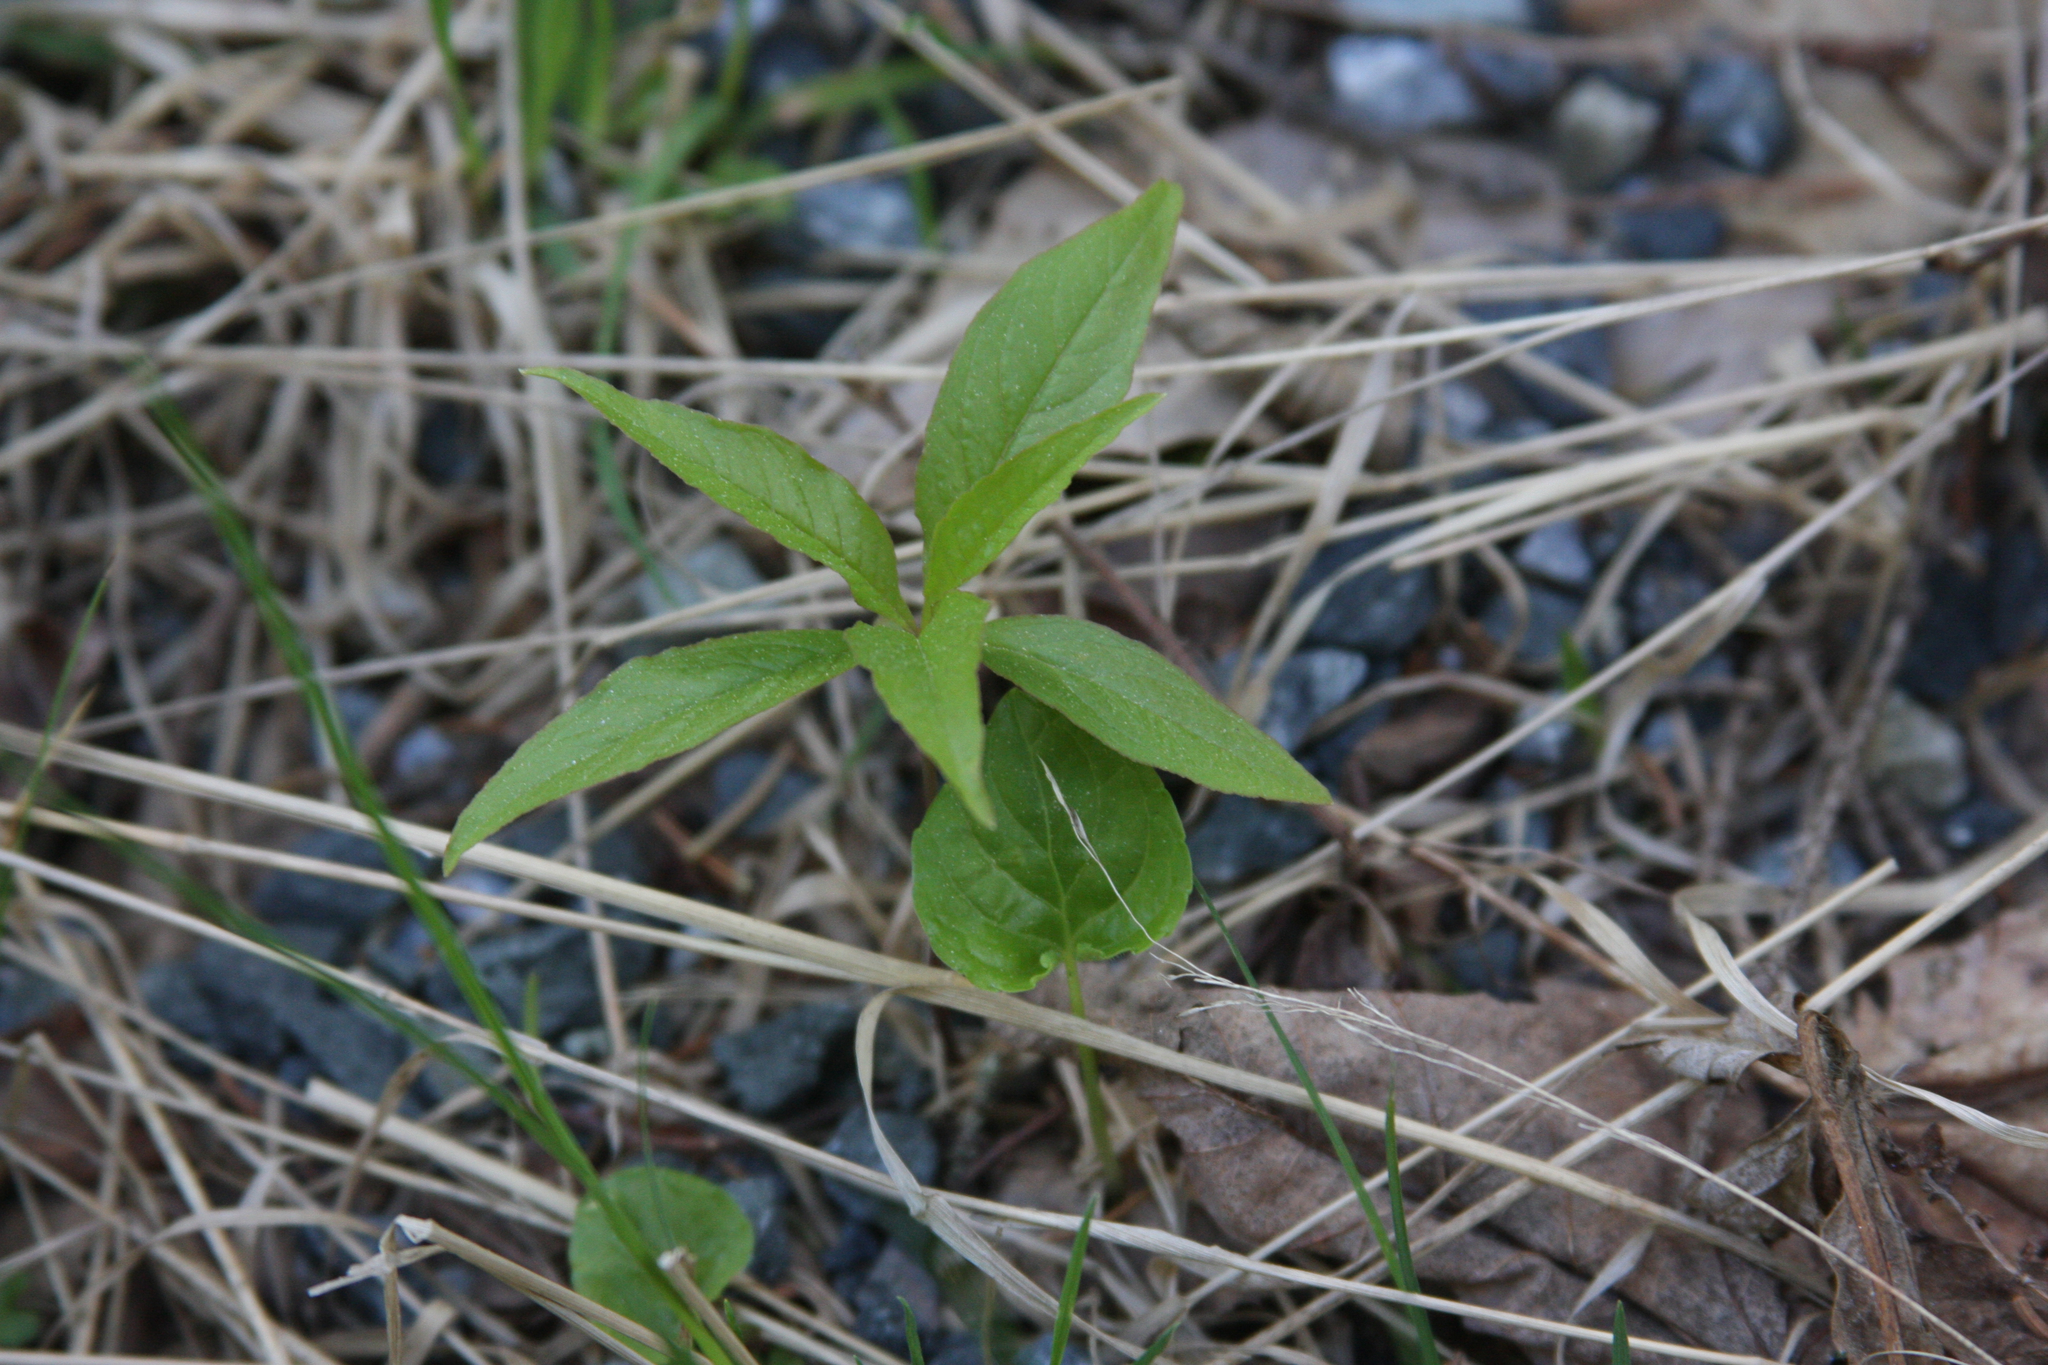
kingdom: Plantae
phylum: Tracheophyta
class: Magnoliopsida
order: Ericales
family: Primulaceae
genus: Lysimachia
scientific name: Lysimachia borealis
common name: American starflower
